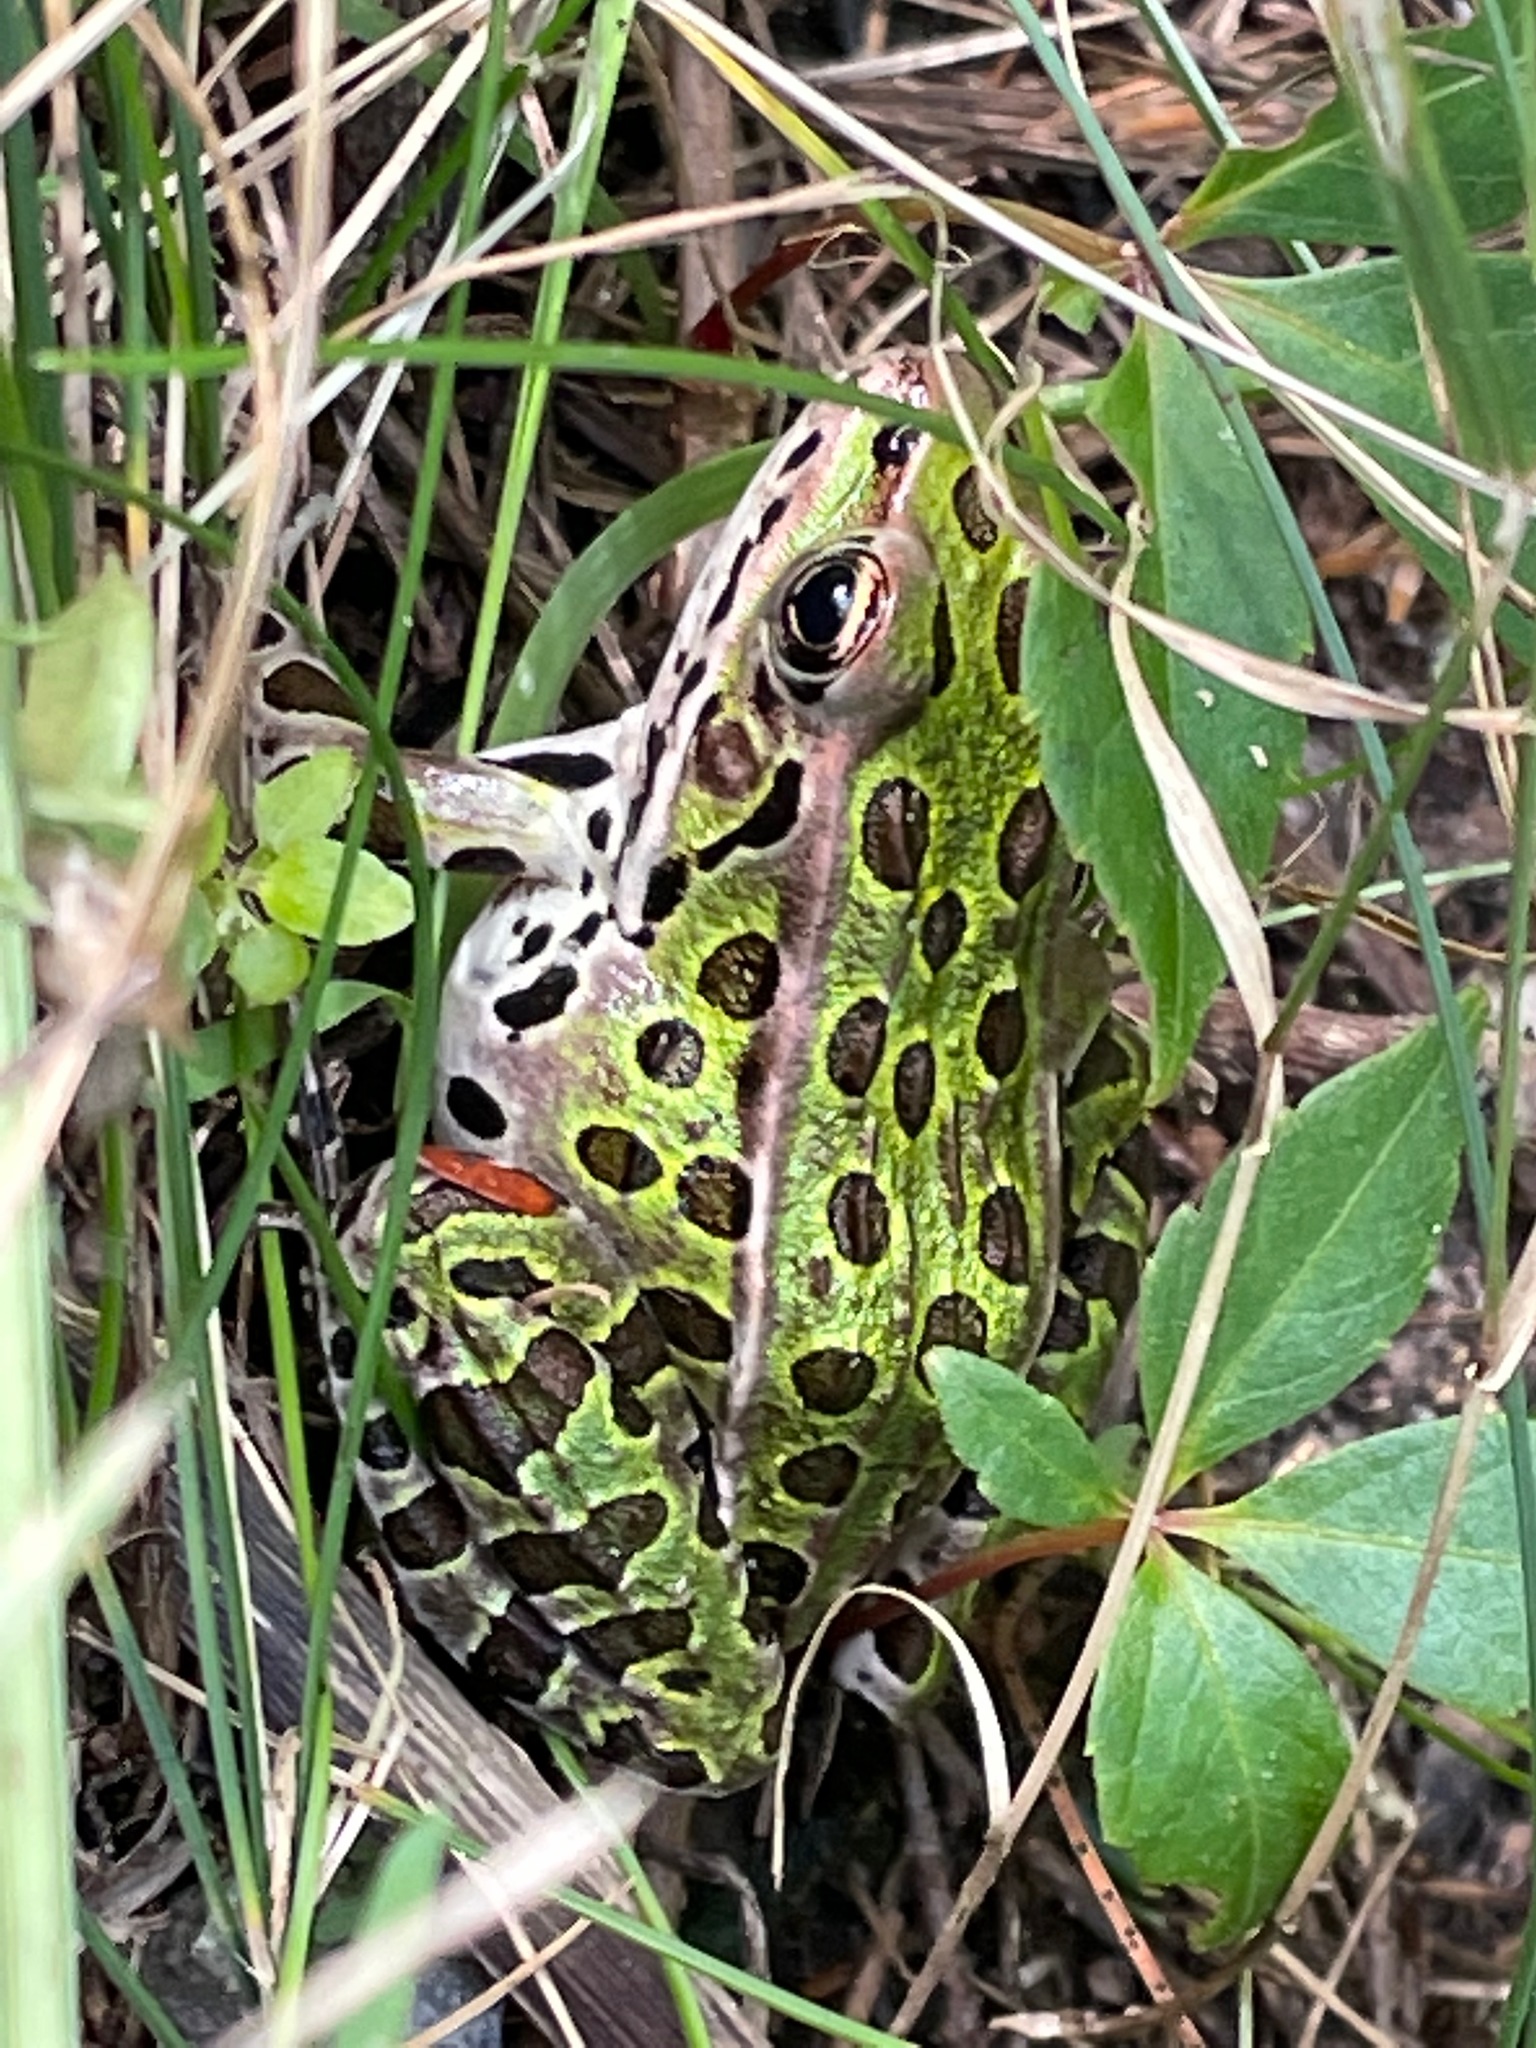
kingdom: Animalia
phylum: Chordata
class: Amphibia
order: Anura
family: Ranidae
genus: Lithobates
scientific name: Lithobates pipiens
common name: Northern leopard frog
